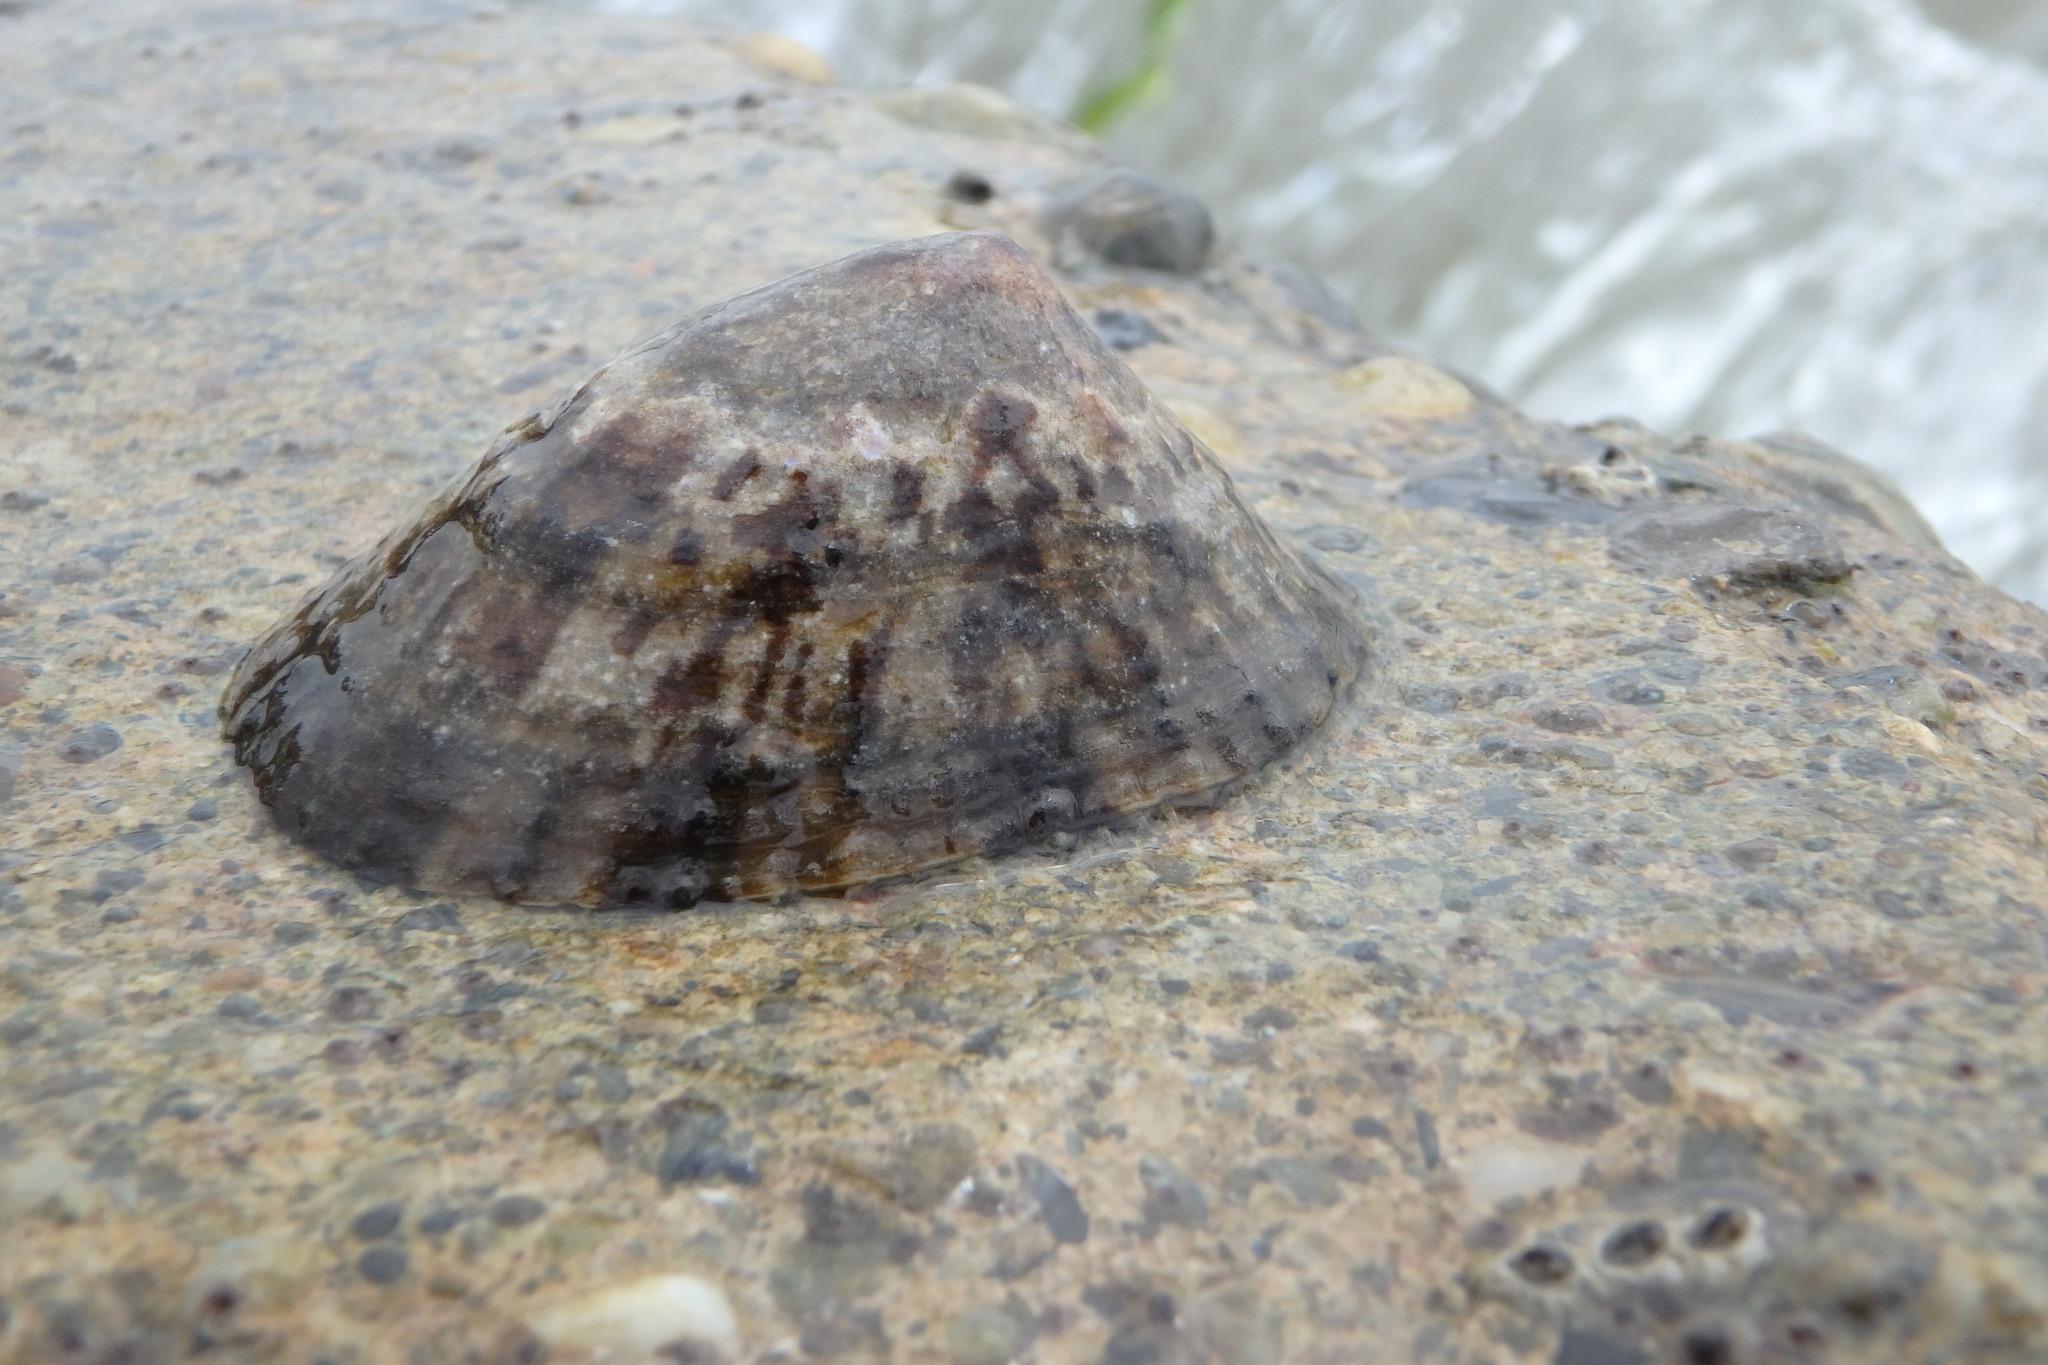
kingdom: Animalia
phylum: Mollusca
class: Gastropoda
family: Nacellidae
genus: Cellana
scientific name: Cellana grata
